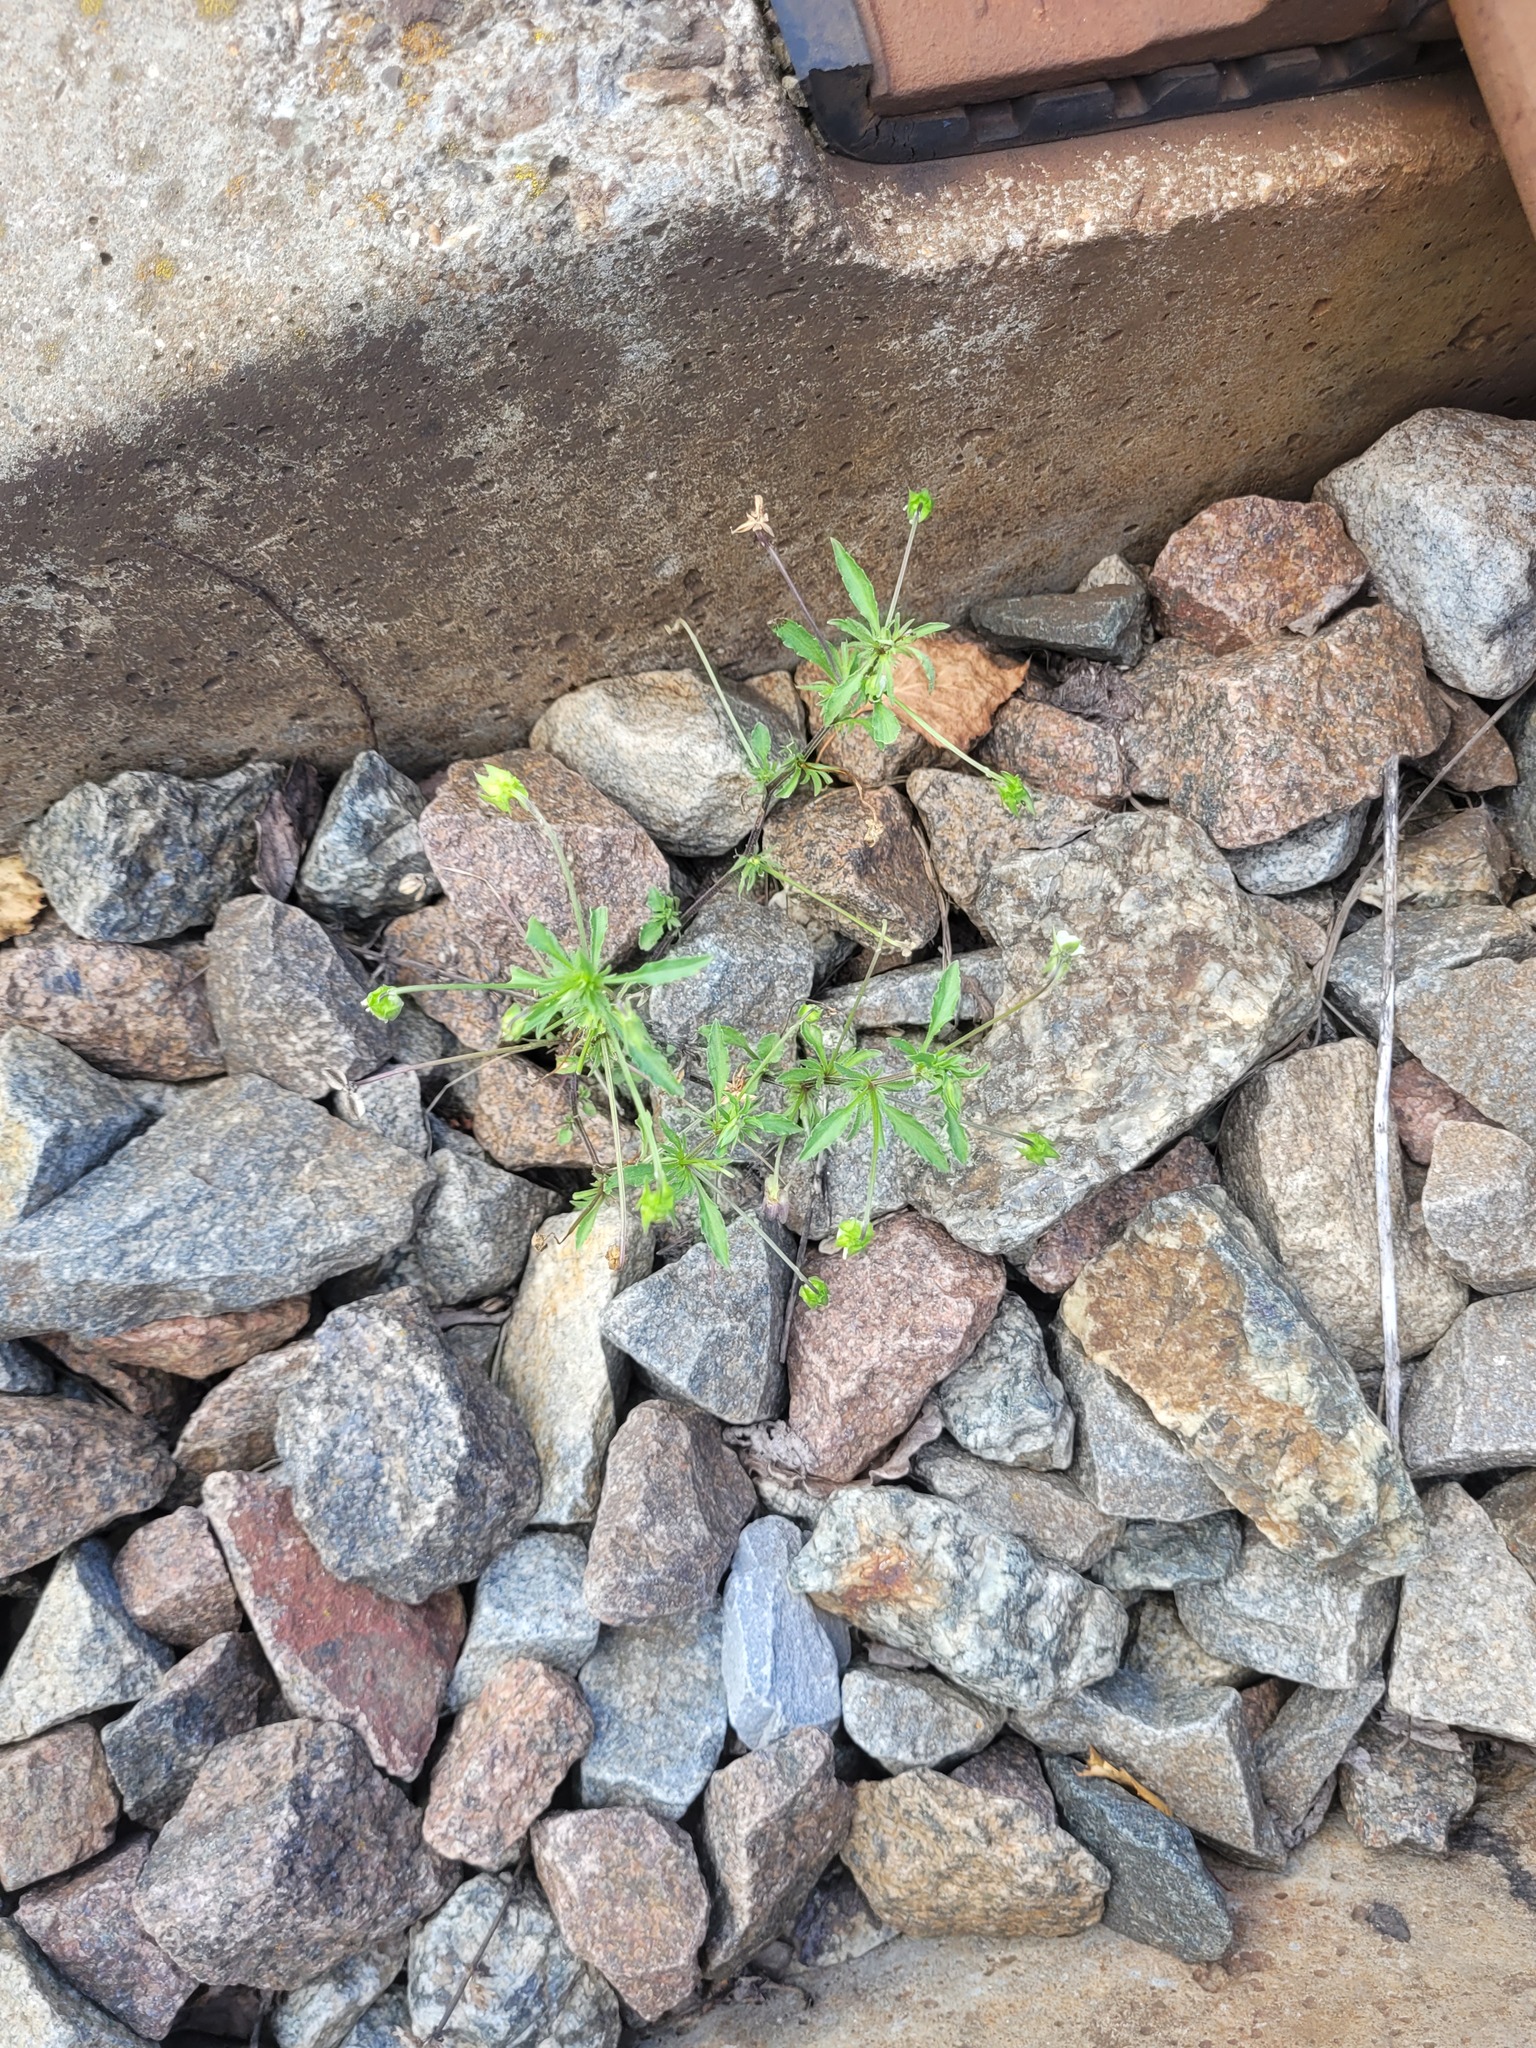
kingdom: Plantae
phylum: Tracheophyta
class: Magnoliopsida
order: Malpighiales
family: Violaceae
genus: Viola
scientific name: Viola arvensis
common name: Field pansy
